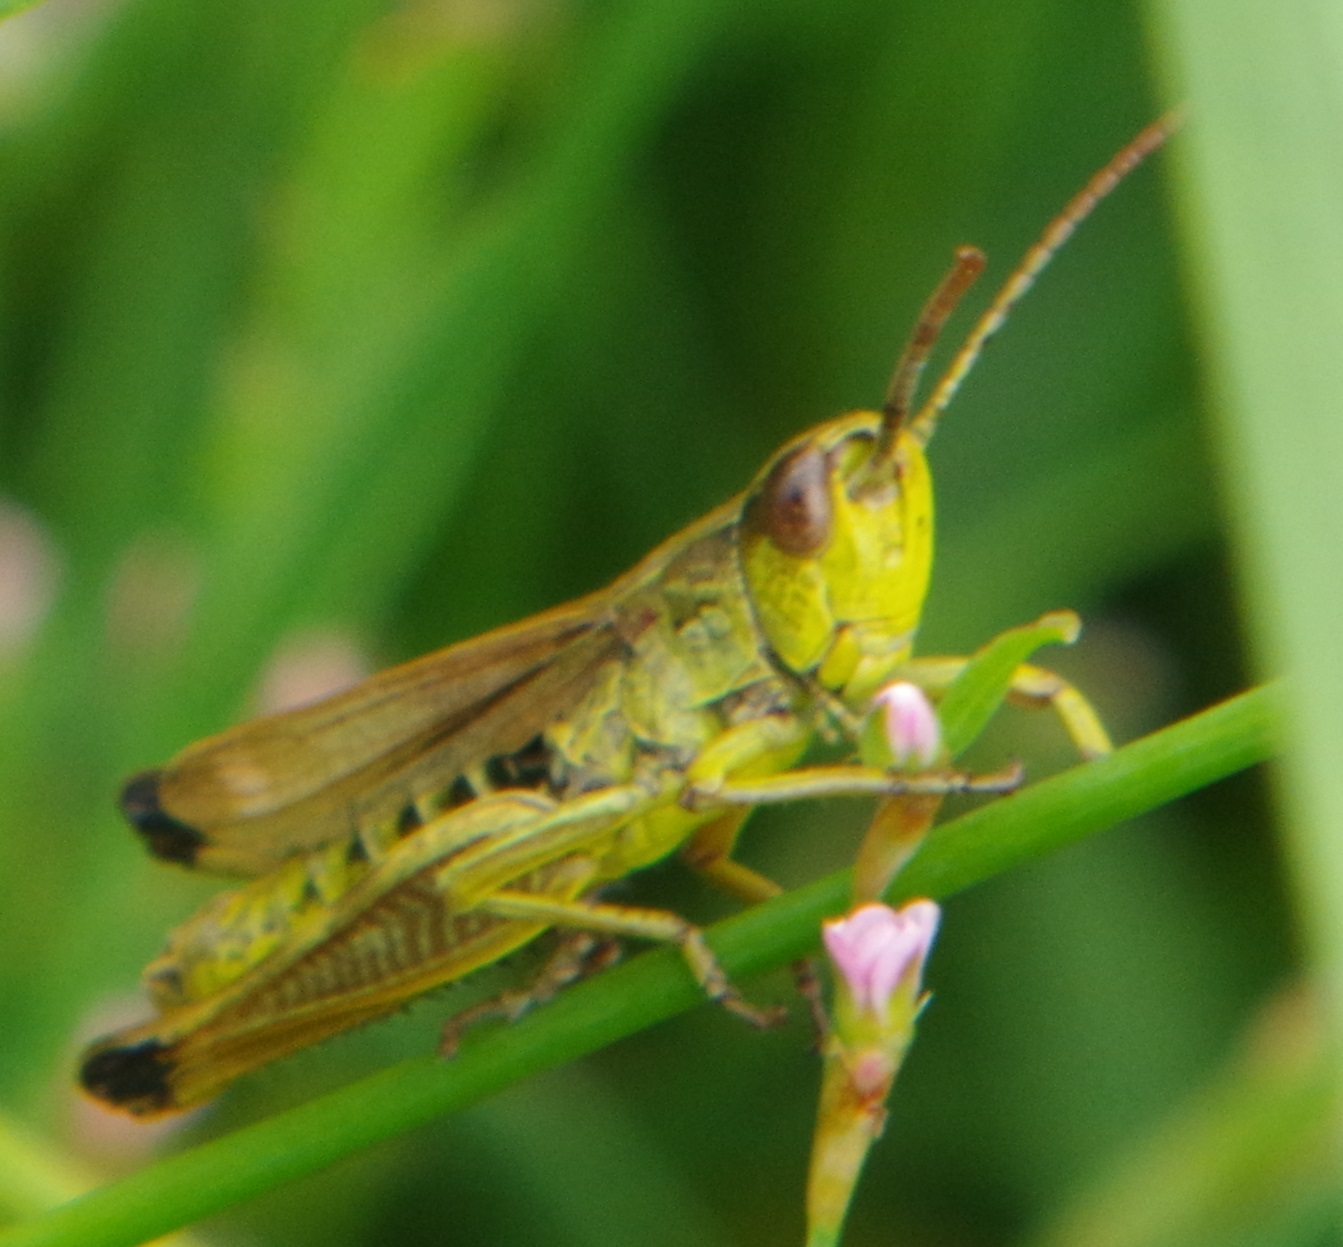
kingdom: Animalia
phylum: Arthropoda
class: Insecta
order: Orthoptera
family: Acrididae
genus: Pseudochorthippus
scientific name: Pseudochorthippus parallelus
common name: Meadow grasshopper
